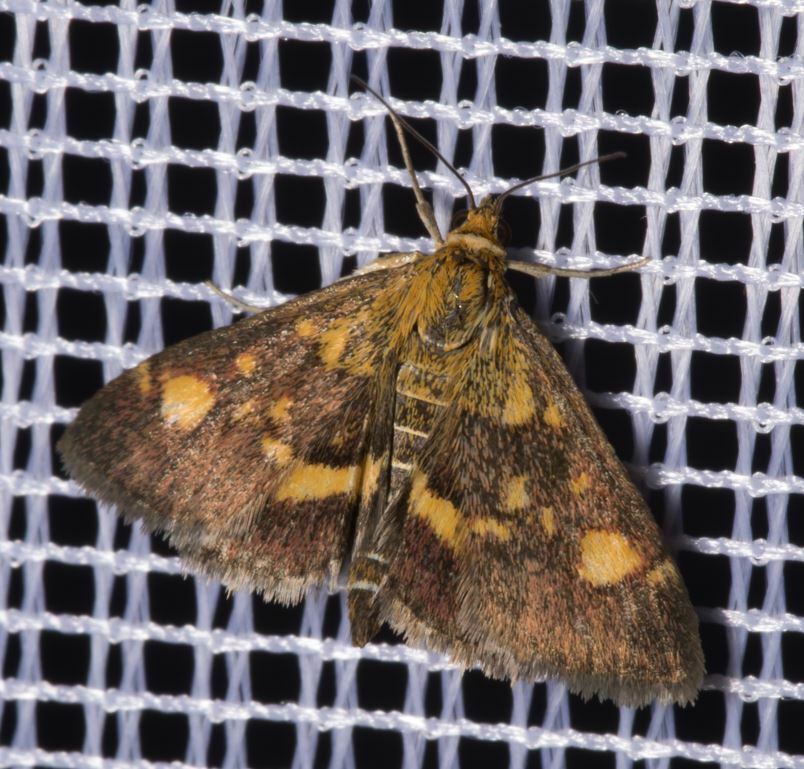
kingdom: Animalia
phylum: Arthropoda
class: Insecta
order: Lepidoptera
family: Crambidae
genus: Pyrausta
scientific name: Pyrausta aurata
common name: Small purple & gold
